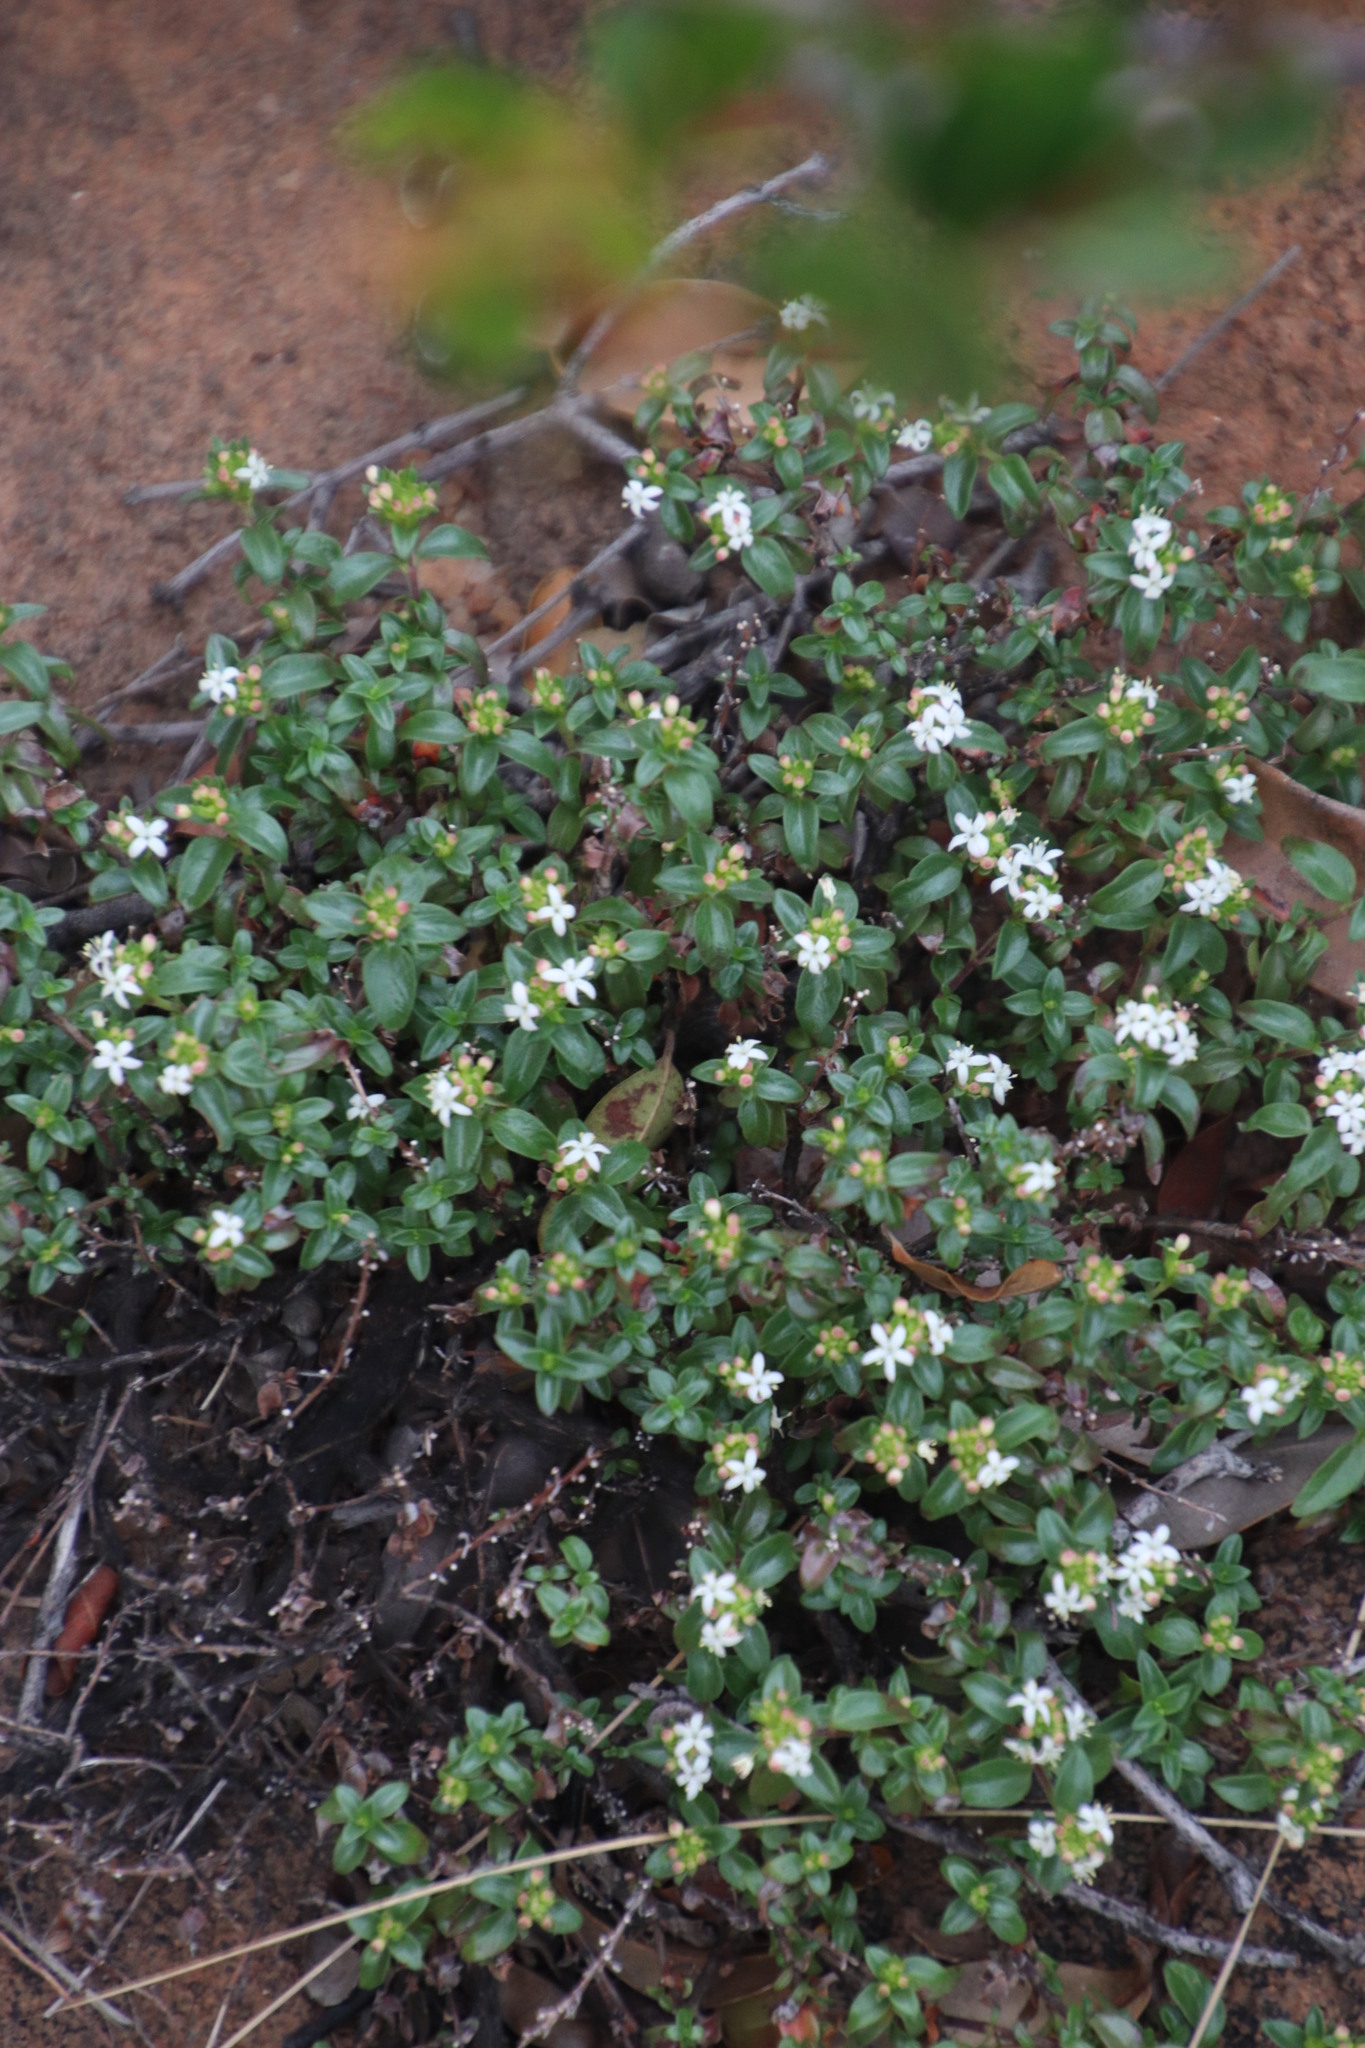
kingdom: Plantae
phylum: Tracheophyta
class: Magnoliopsida
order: Gentianales
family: Rubiaceae
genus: Otiophora
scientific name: Otiophora calycophylla
